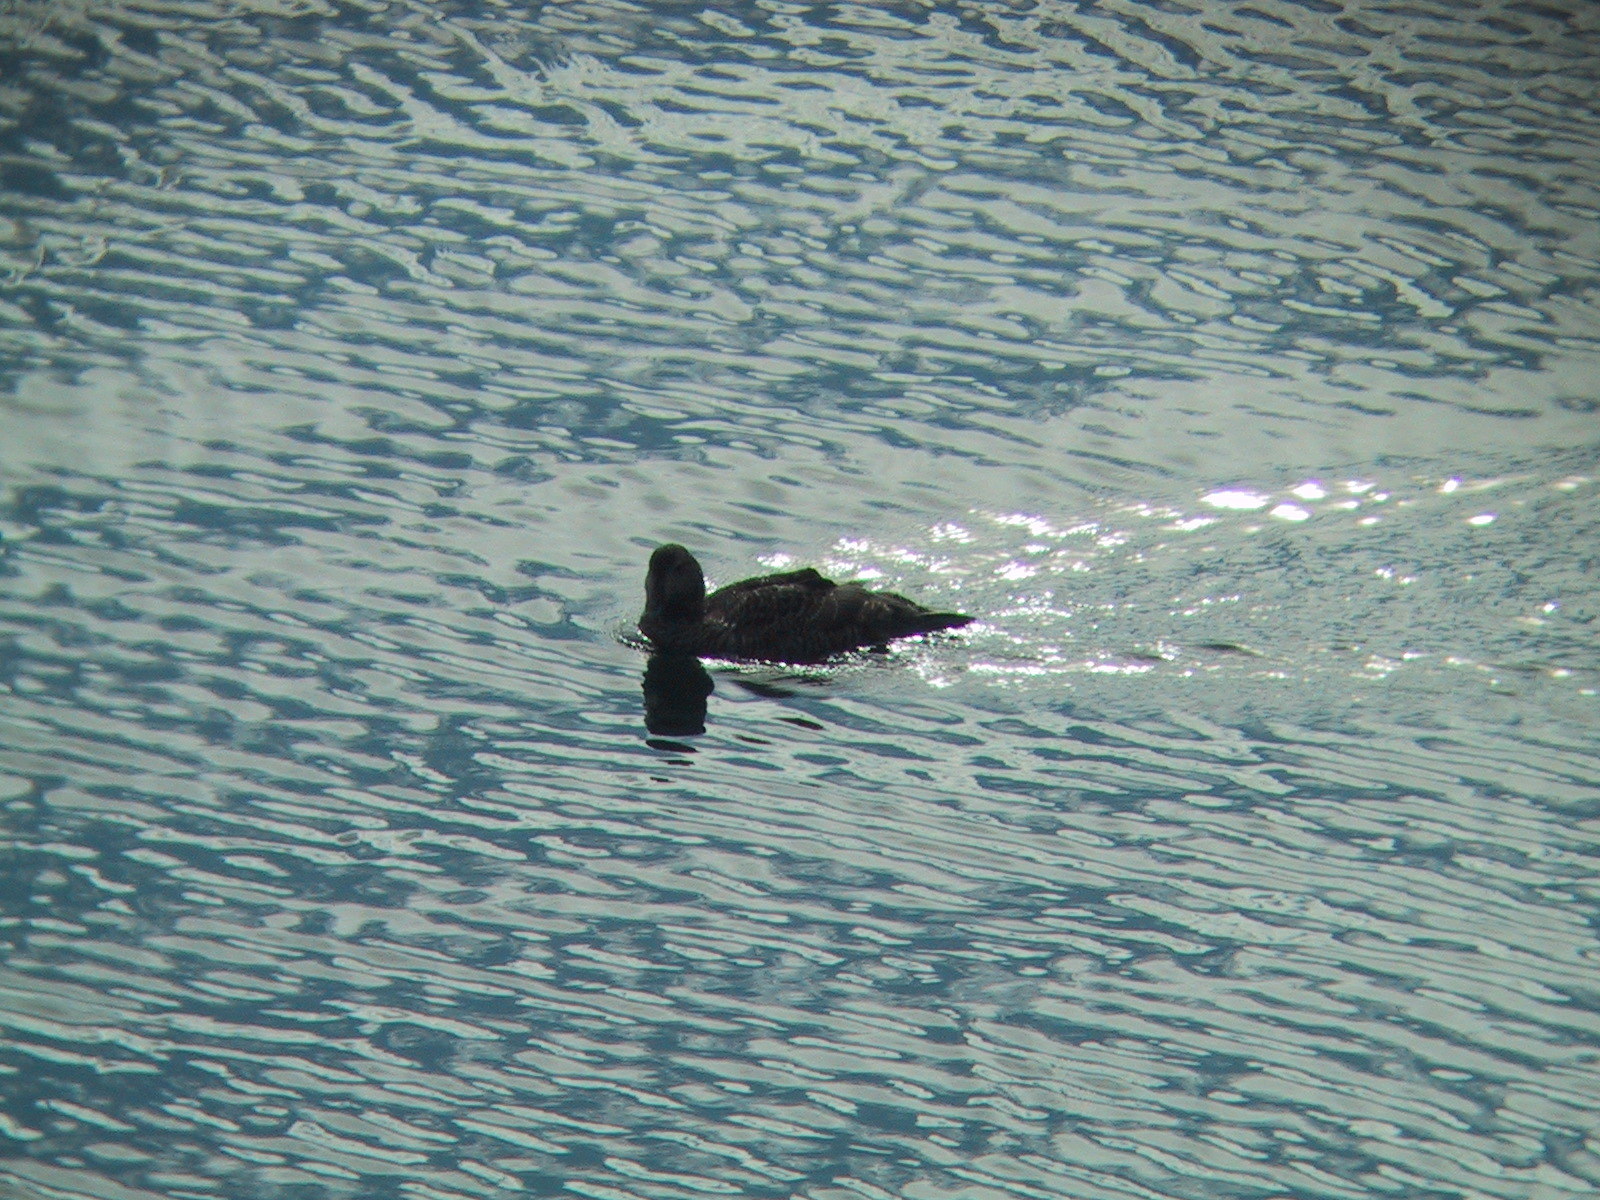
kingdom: Animalia
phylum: Chordata
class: Aves
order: Anseriformes
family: Anatidae
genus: Somateria
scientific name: Somateria mollissima
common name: Common eider
